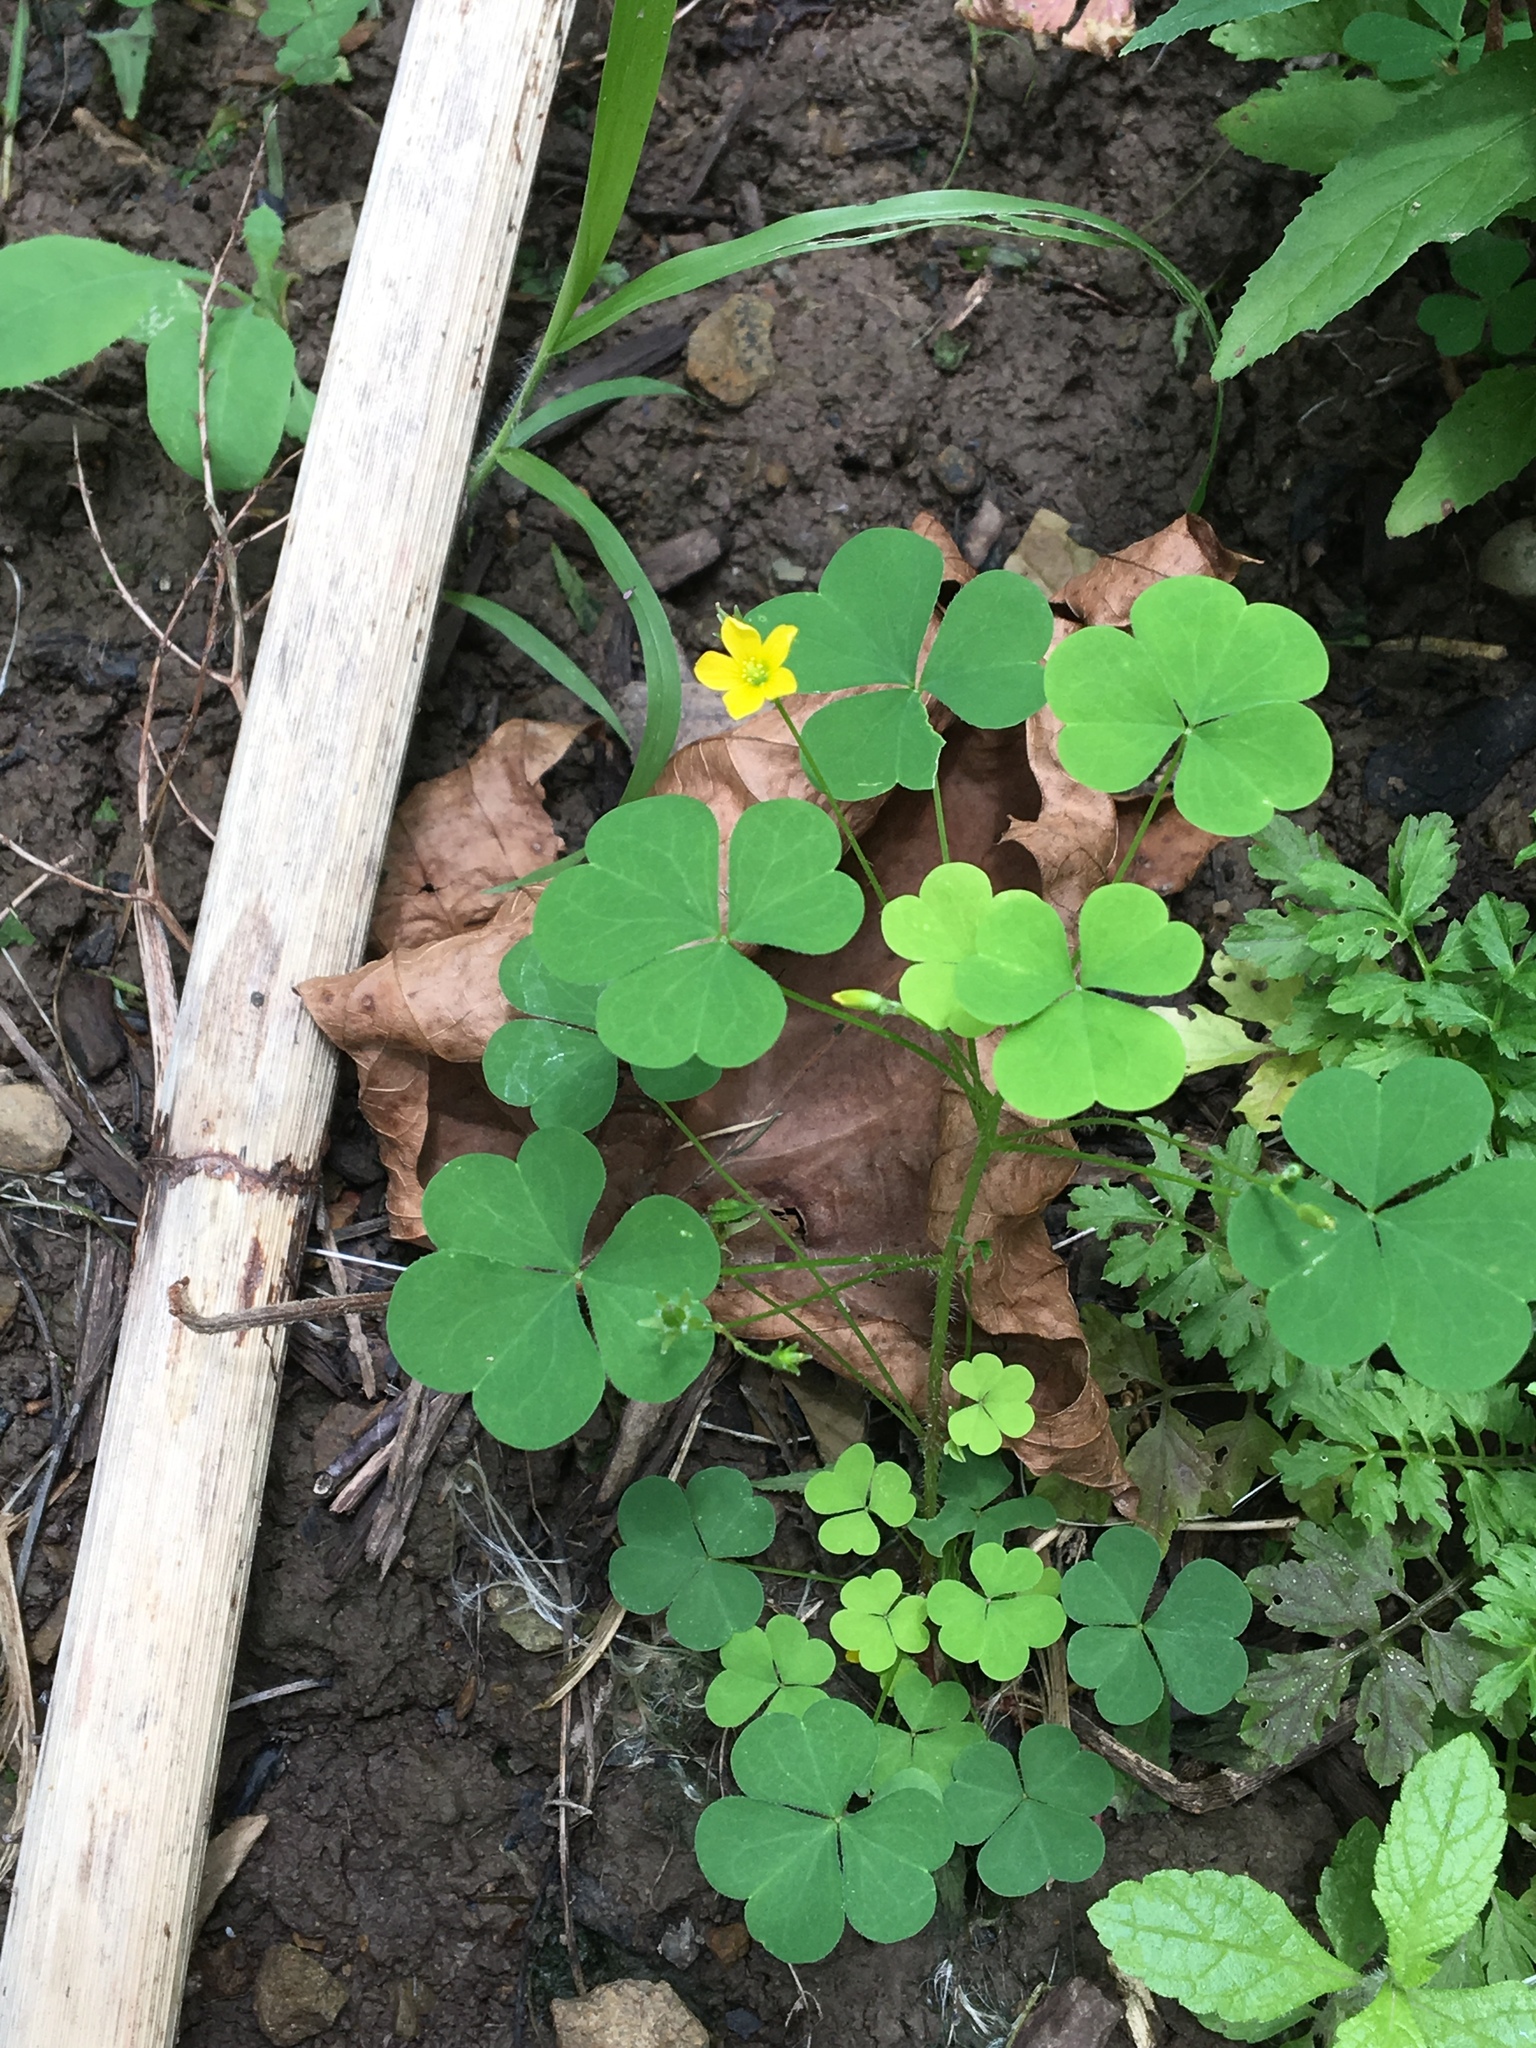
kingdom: Plantae
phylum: Tracheophyta
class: Magnoliopsida
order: Oxalidales
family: Oxalidaceae
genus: Oxalis
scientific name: Oxalis stricta
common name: Upright yellow-sorrel
